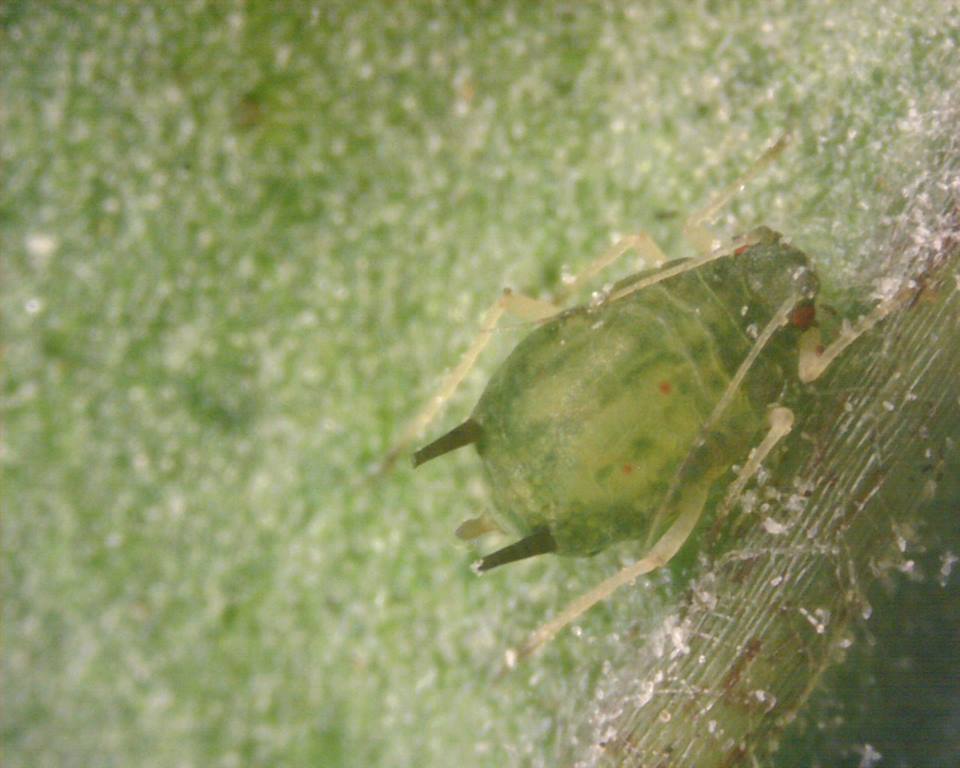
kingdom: Animalia
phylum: Arthropoda
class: Insecta
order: Hemiptera
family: Aphididae
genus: Aphis
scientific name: Aphis gossypii
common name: Melon aphid
